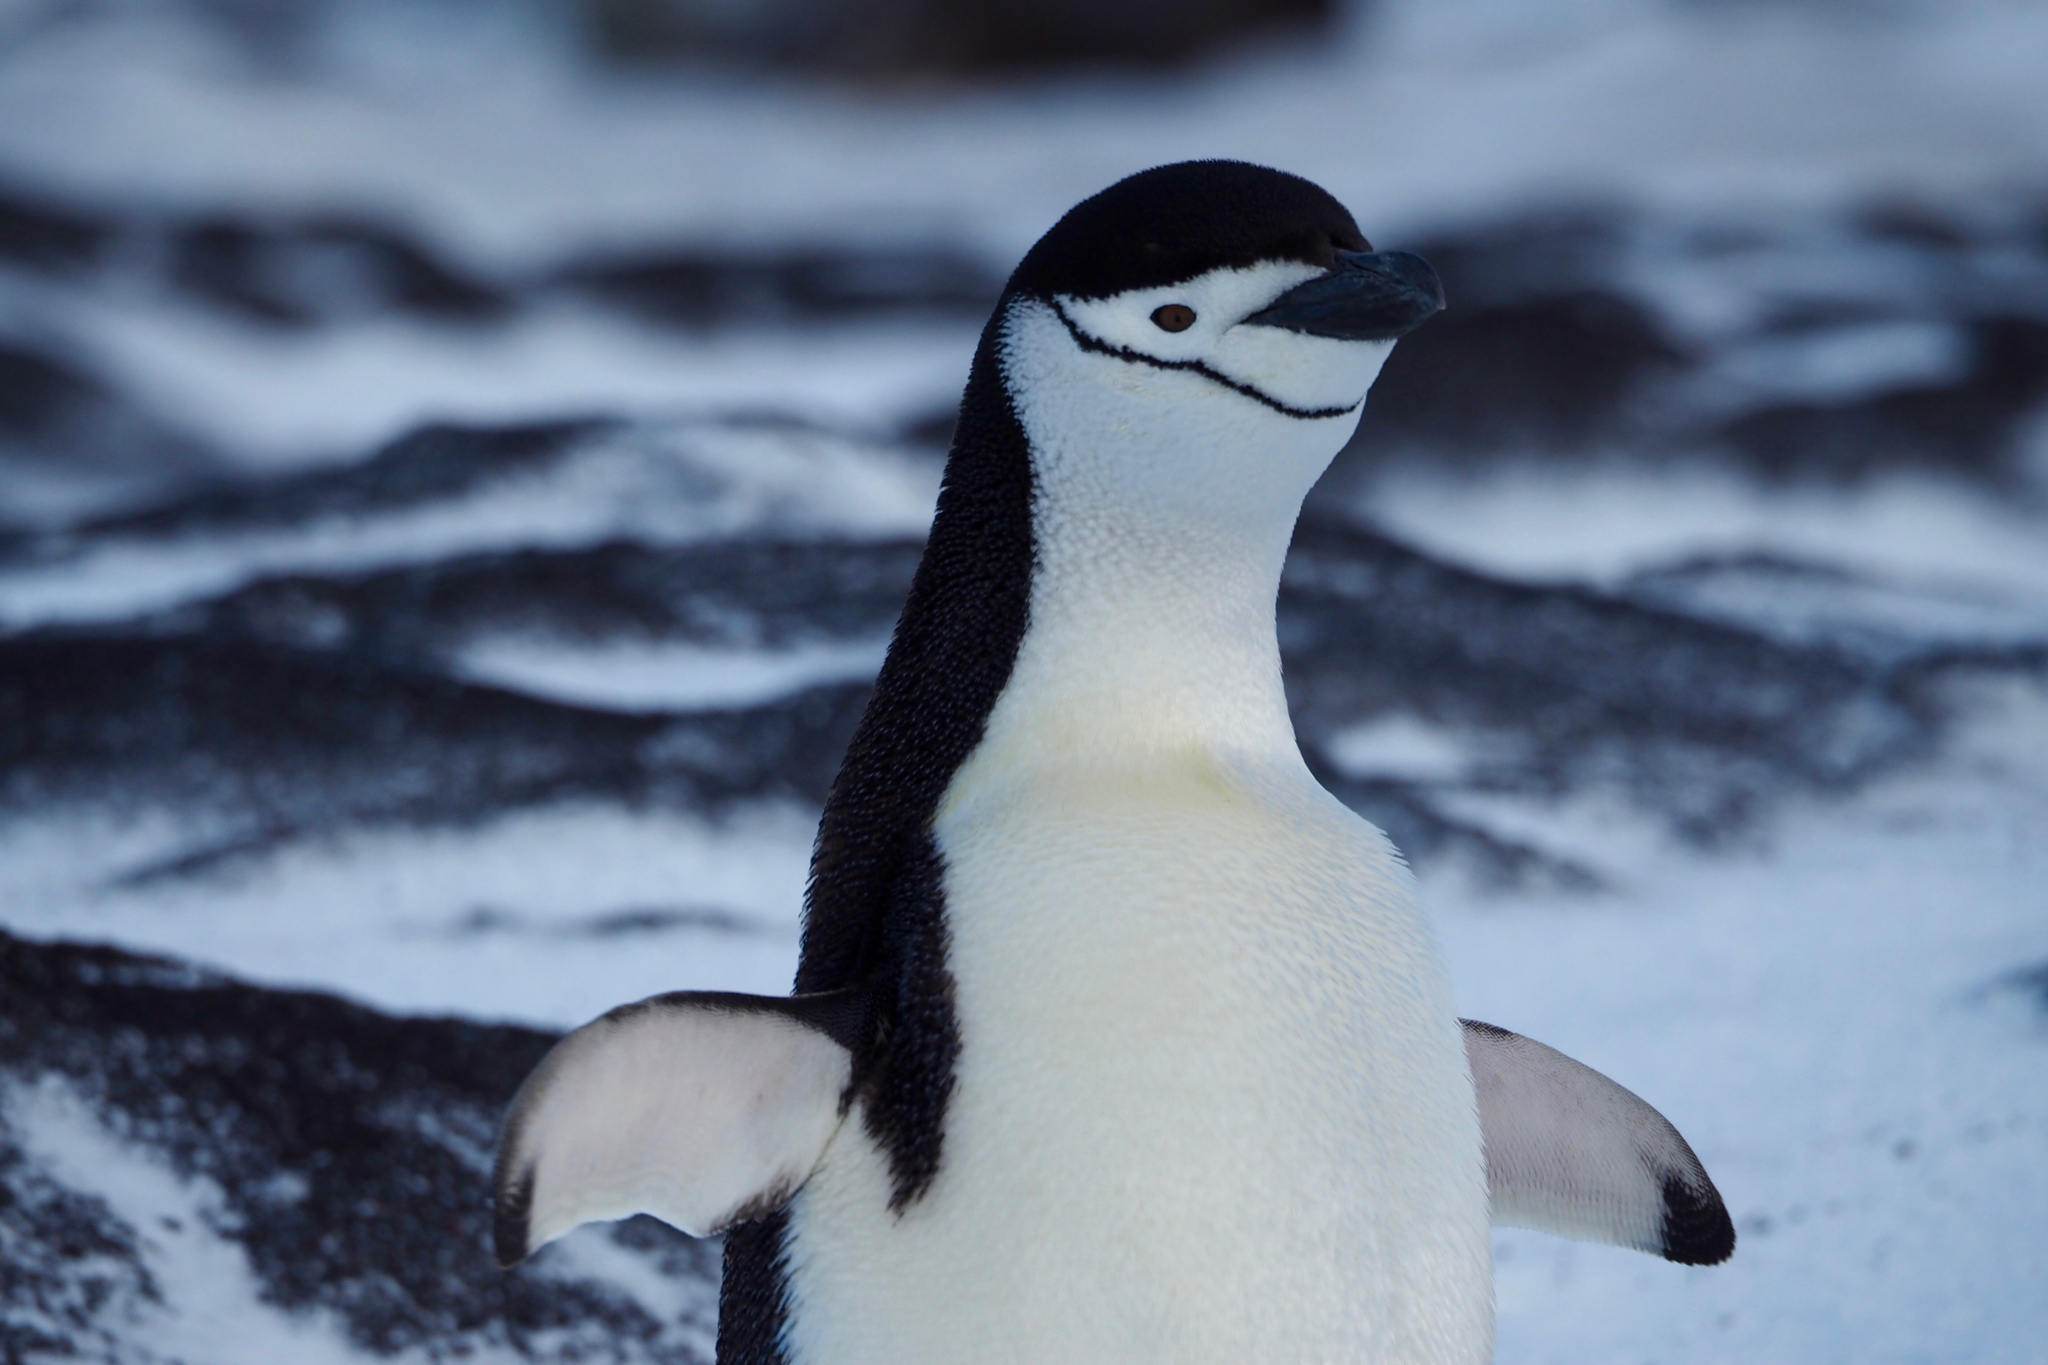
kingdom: Animalia
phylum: Chordata
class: Aves
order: Sphenisciformes
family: Spheniscidae
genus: Pygoscelis
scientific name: Pygoscelis antarcticus
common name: Chinstrap penguin
